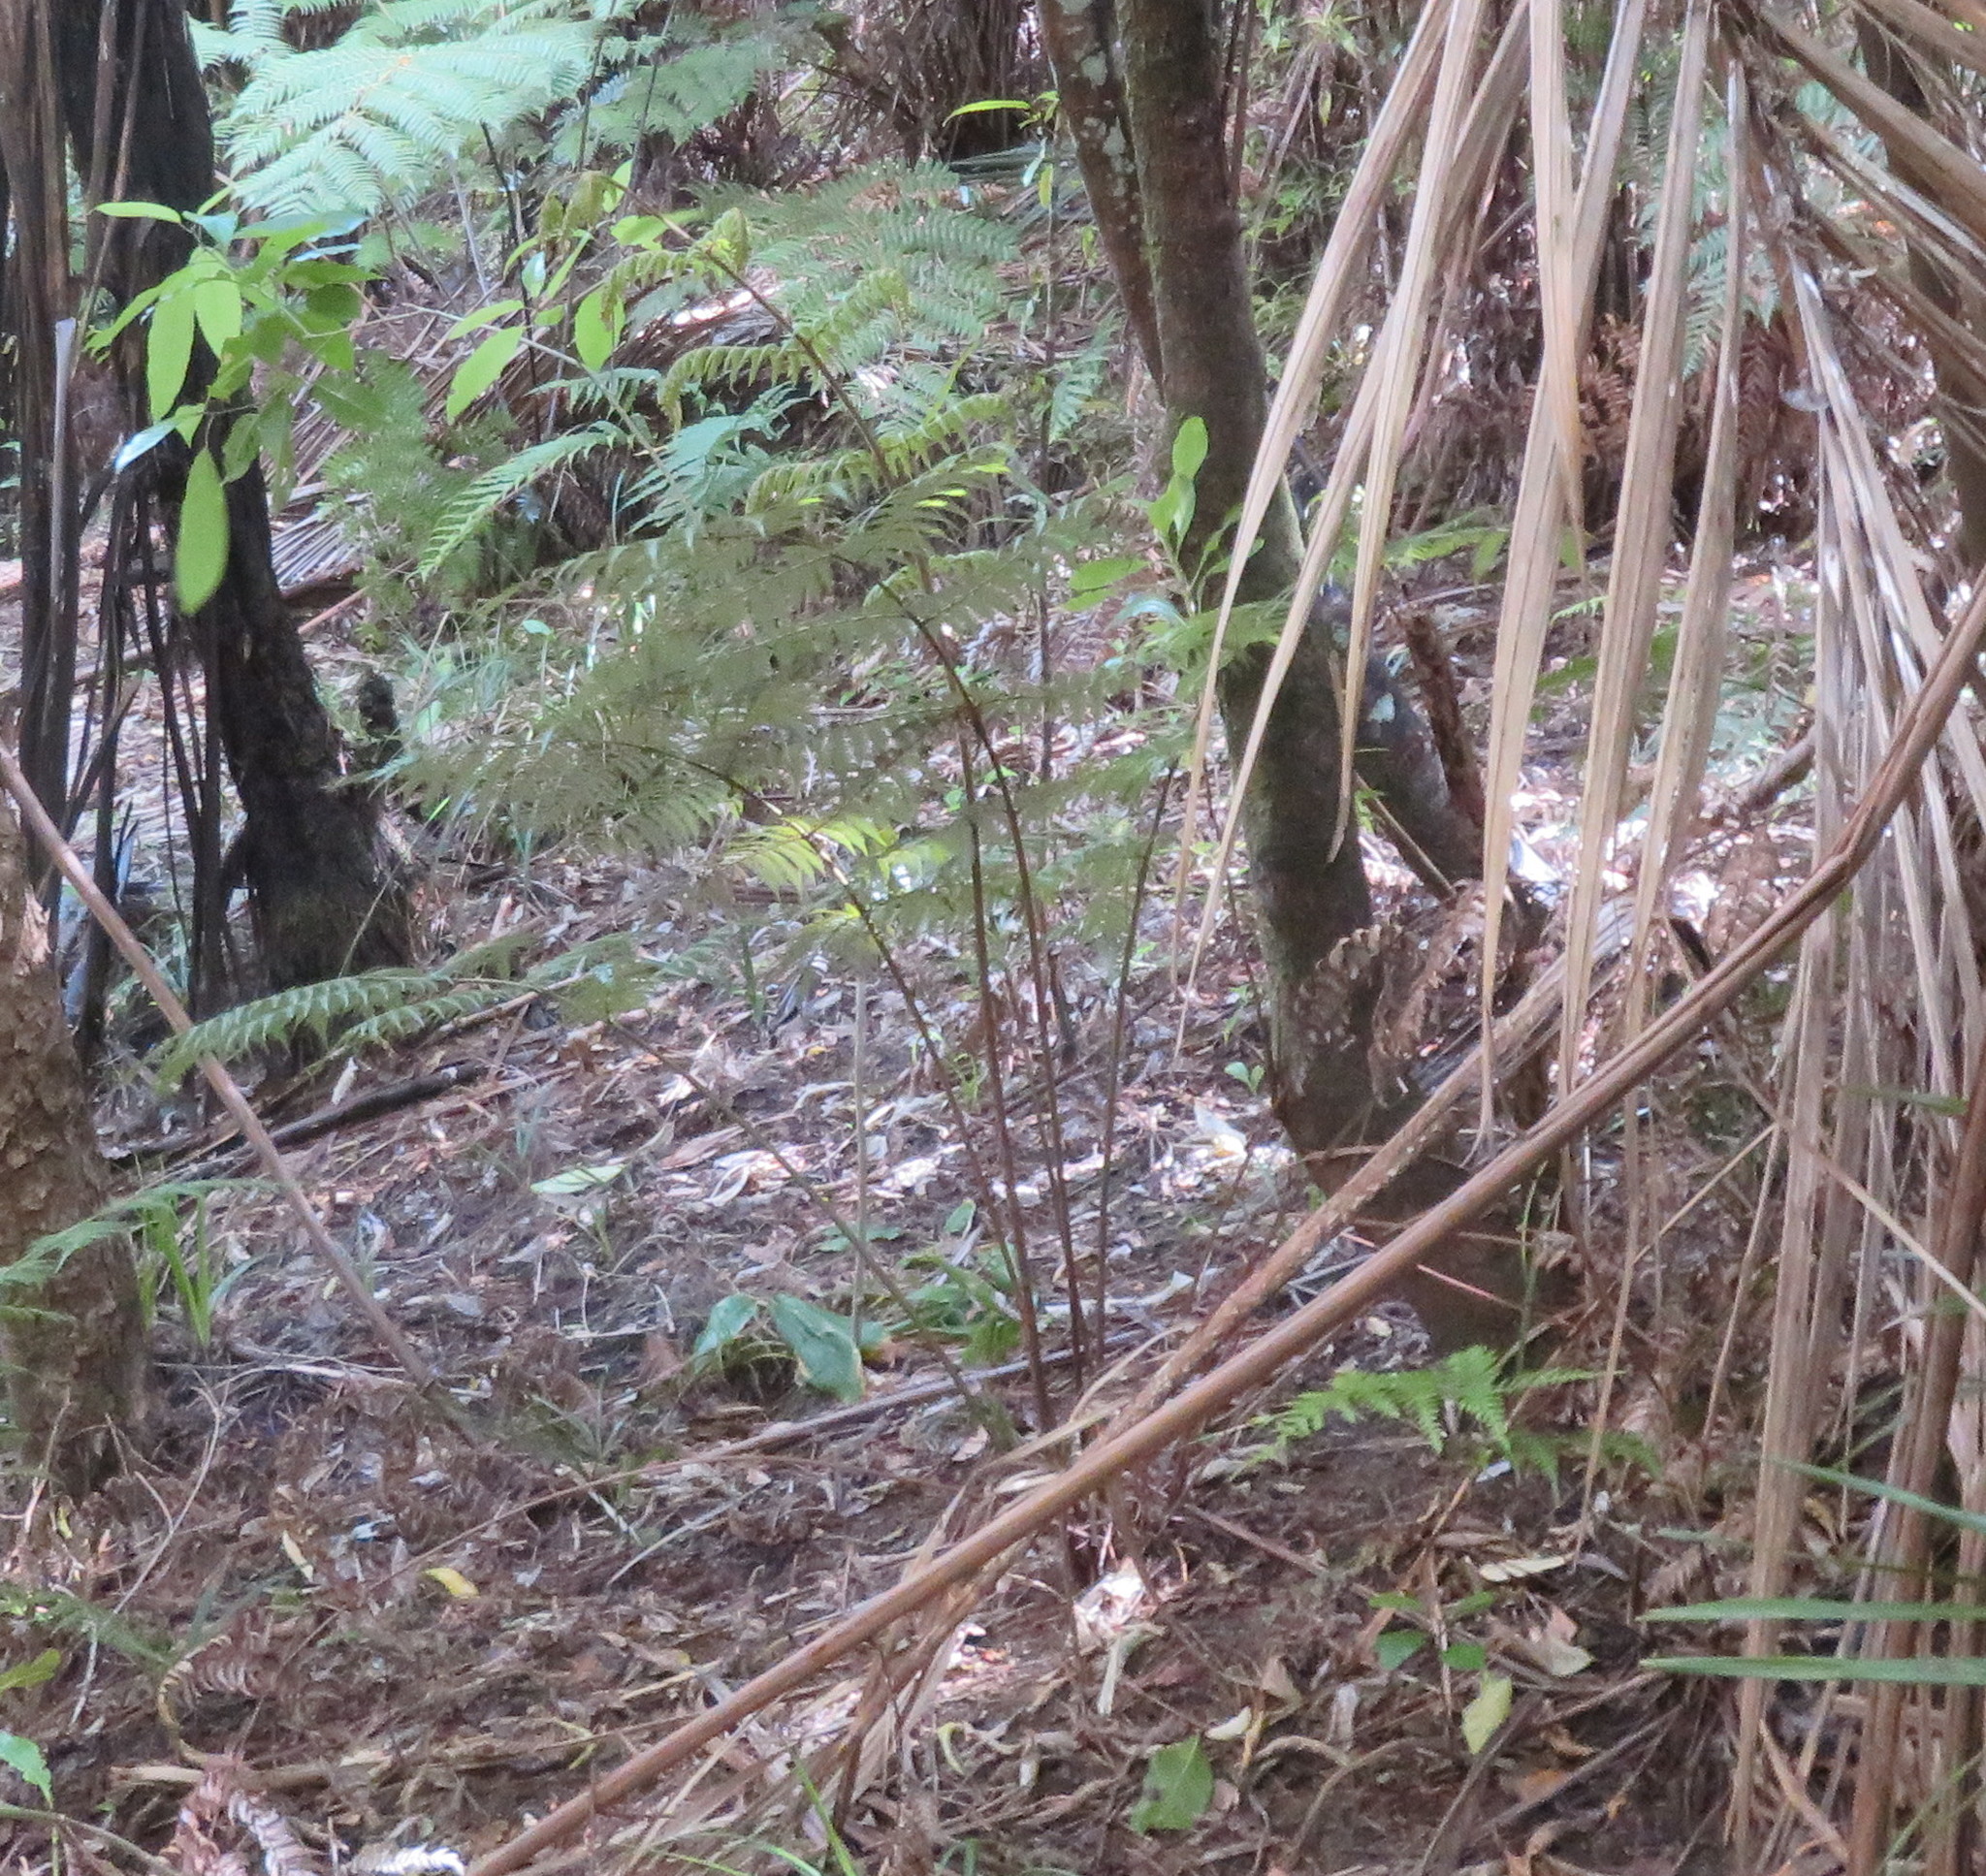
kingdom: Plantae
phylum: Tracheophyta
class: Polypodiopsida
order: Cyatheales
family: Cyatheaceae
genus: Alsophila
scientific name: Alsophila dealbata
